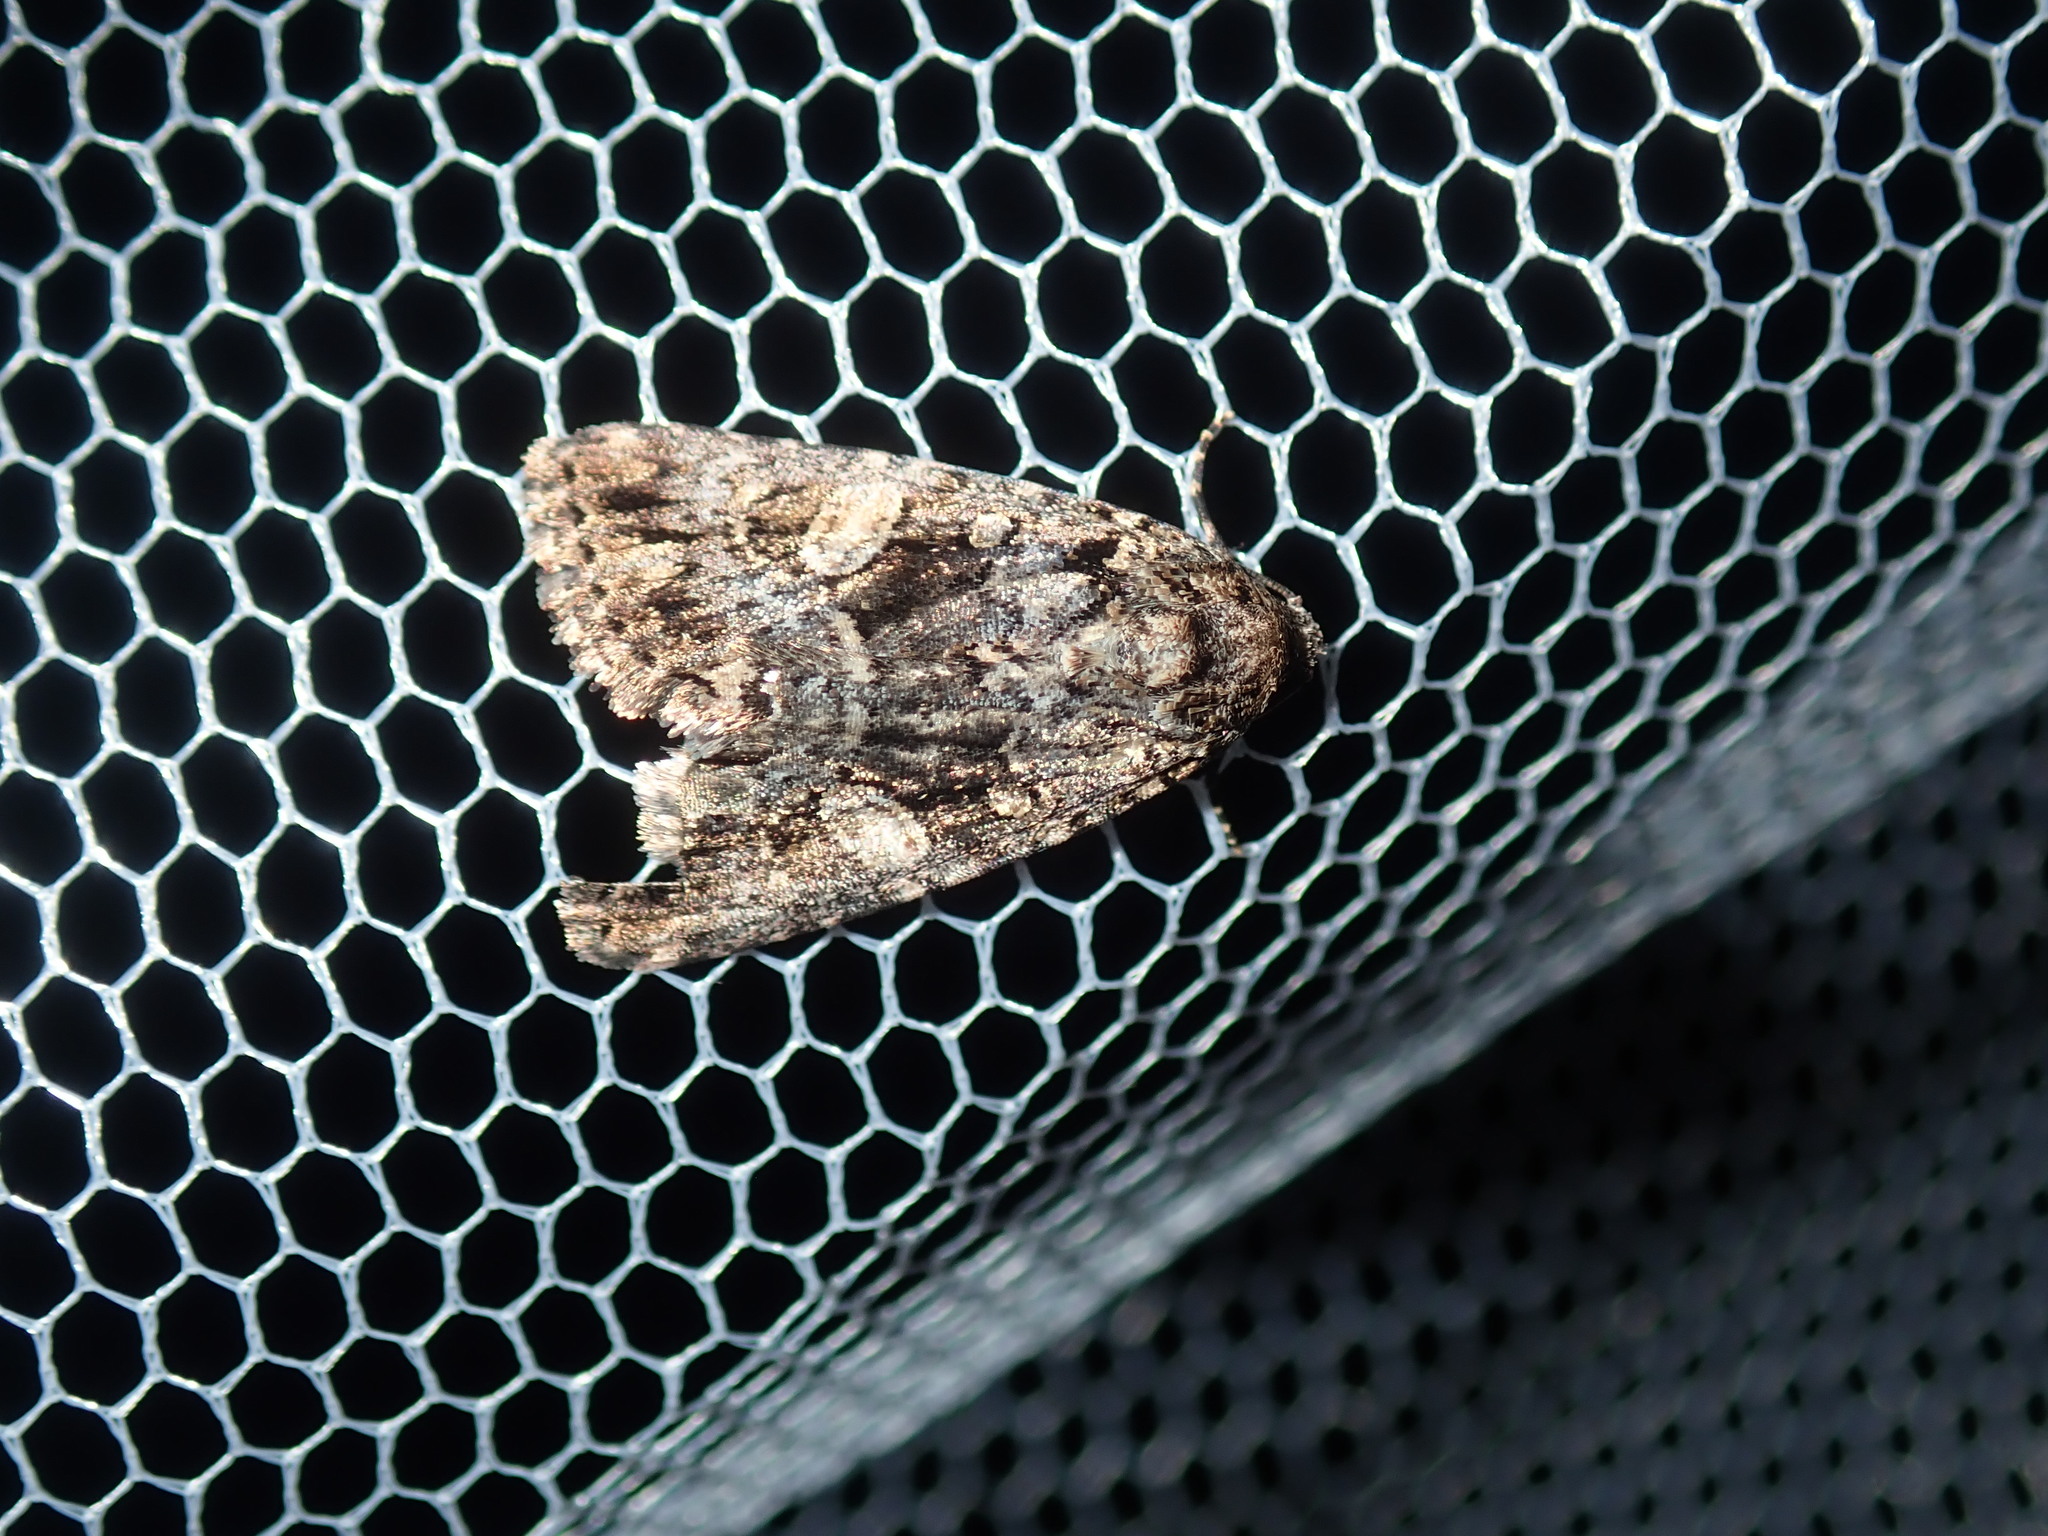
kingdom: Animalia
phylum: Arthropoda
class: Insecta
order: Lepidoptera
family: Noctuidae
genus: Condica
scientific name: Condica
